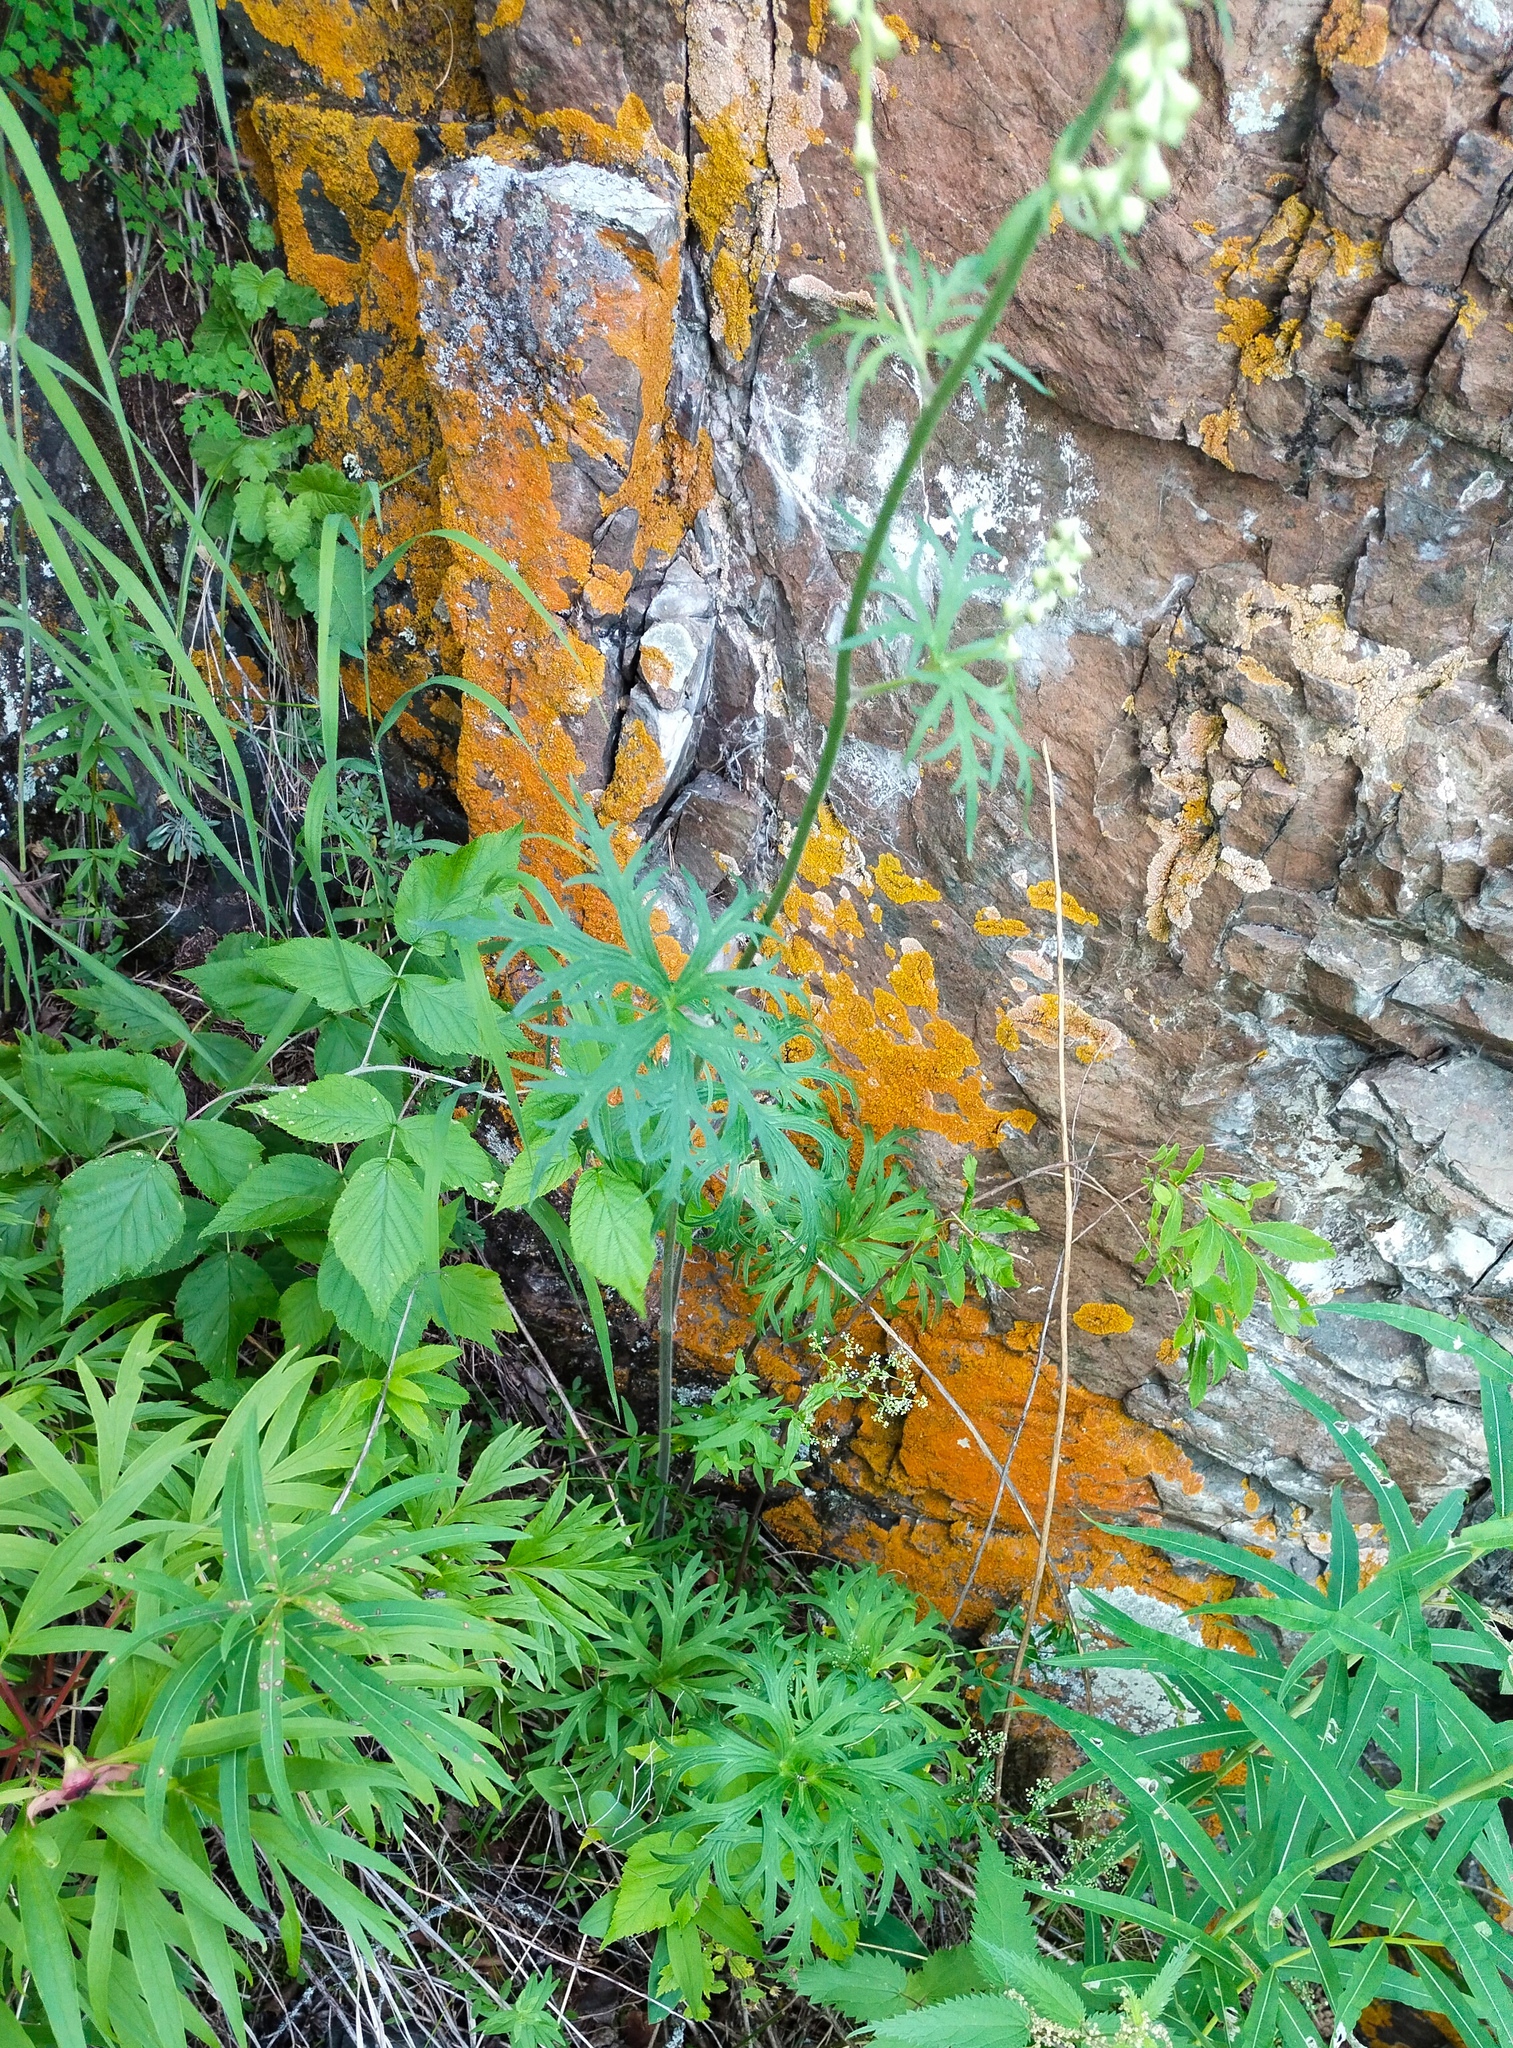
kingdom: Plantae
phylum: Tracheophyta
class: Magnoliopsida
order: Ranunculales
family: Ranunculaceae
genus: Aconitum
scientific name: Aconitum barbatum
